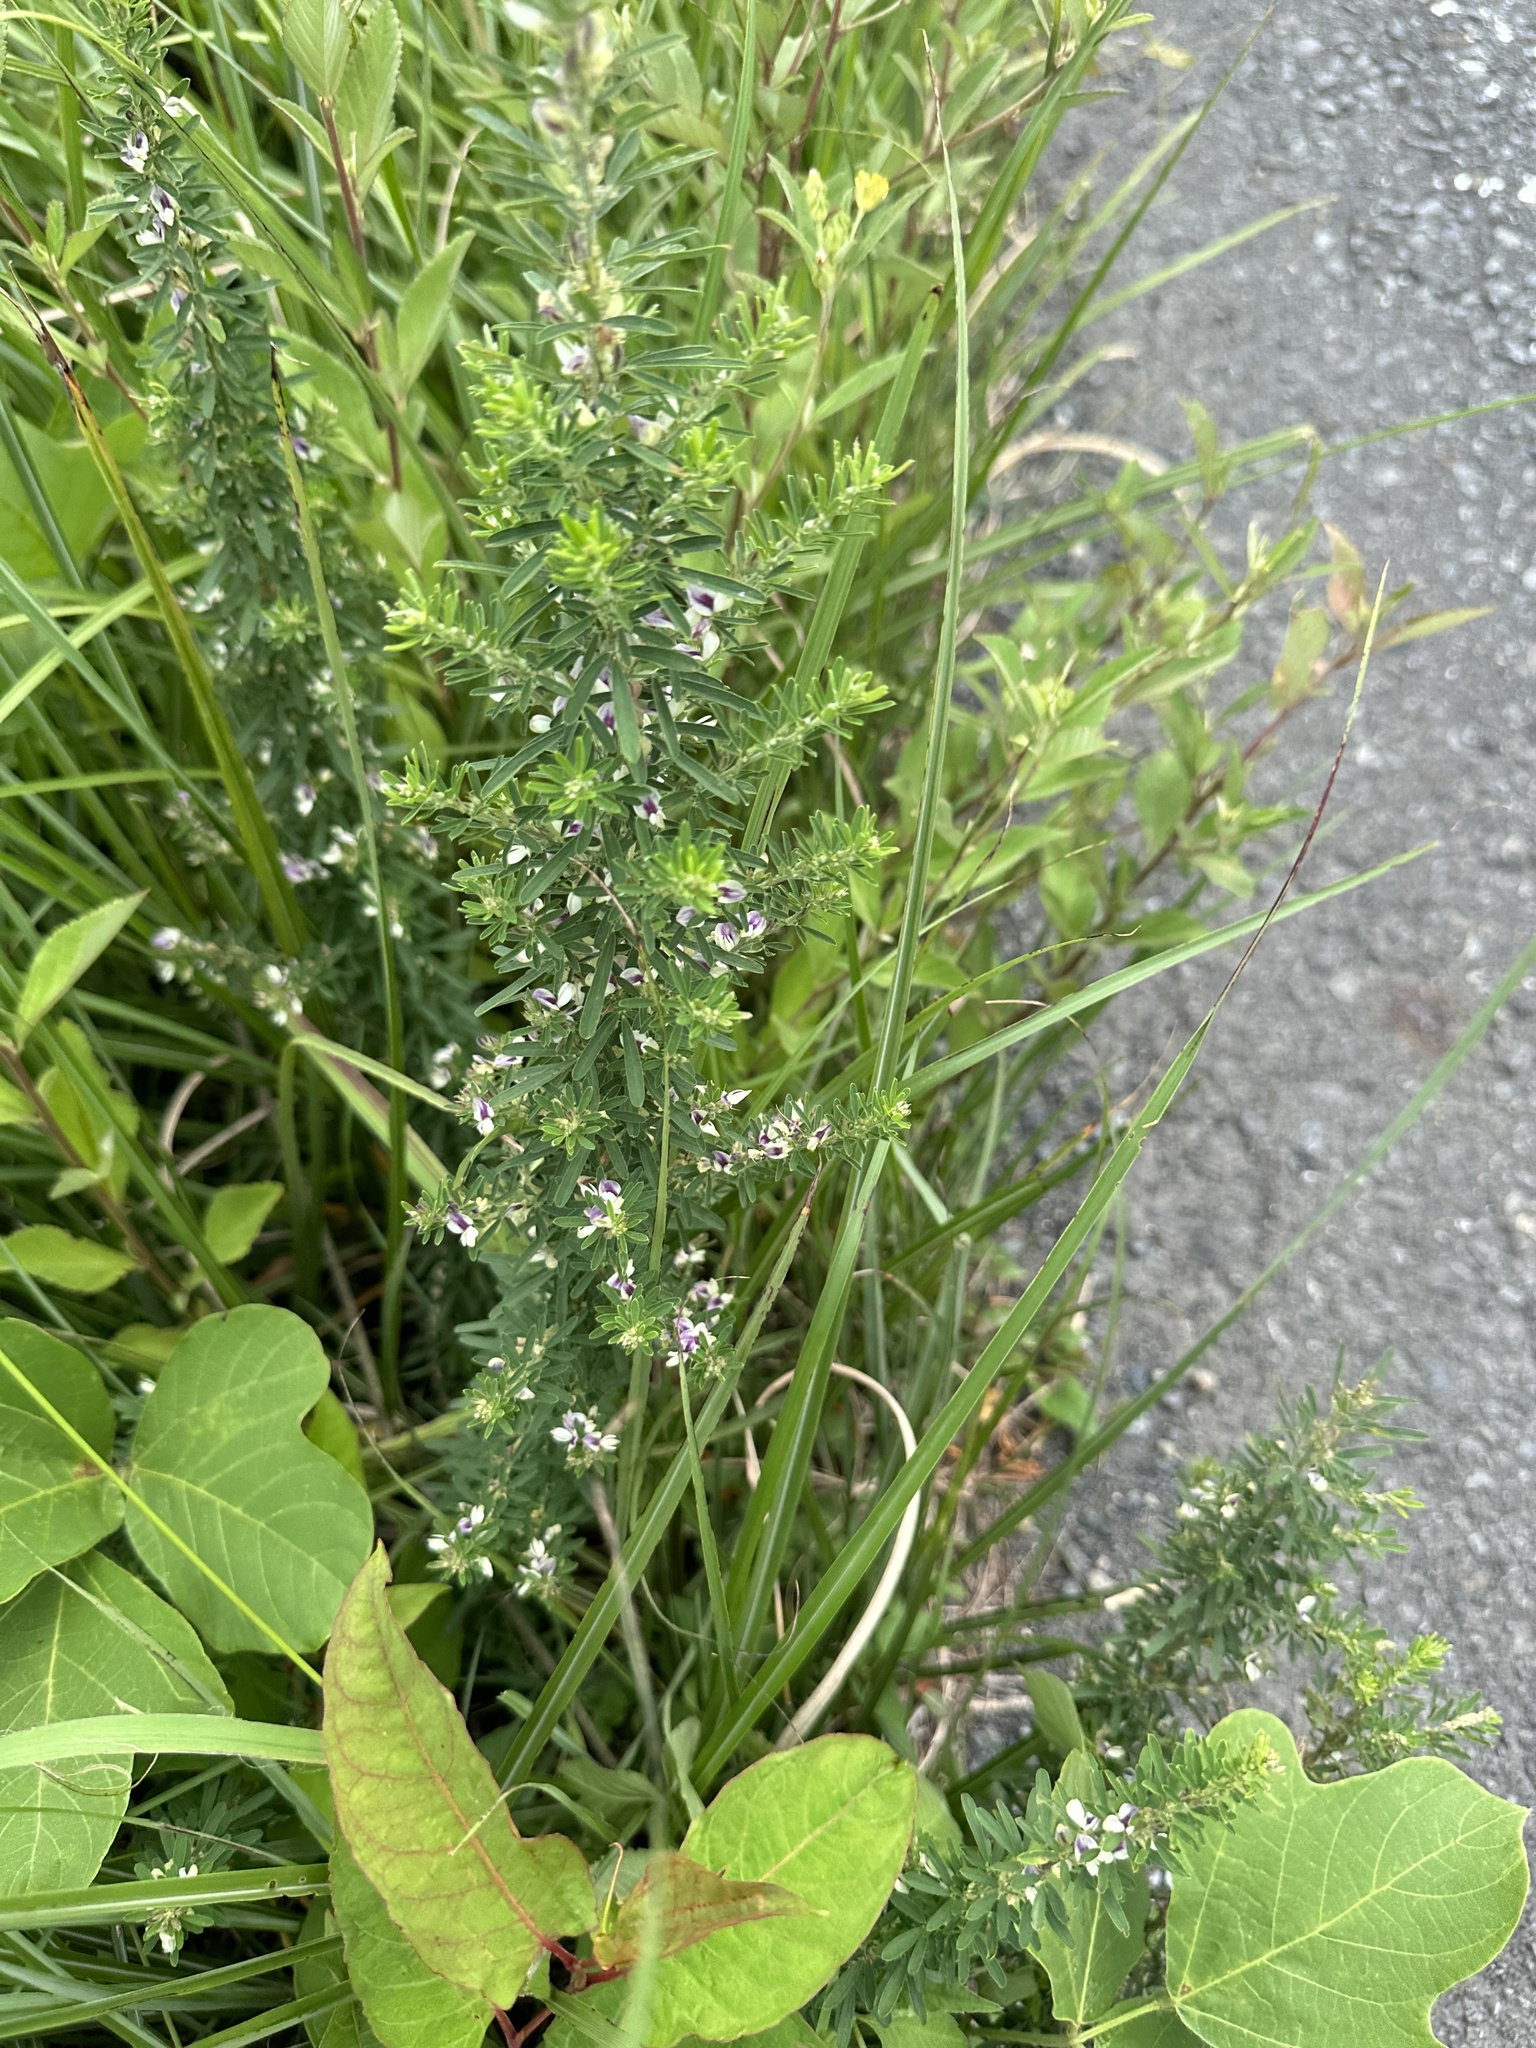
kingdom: Plantae
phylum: Tracheophyta
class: Magnoliopsida
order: Fabales
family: Fabaceae
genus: Lespedeza
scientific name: Lespedeza cuneata
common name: Chinese bush-clover
